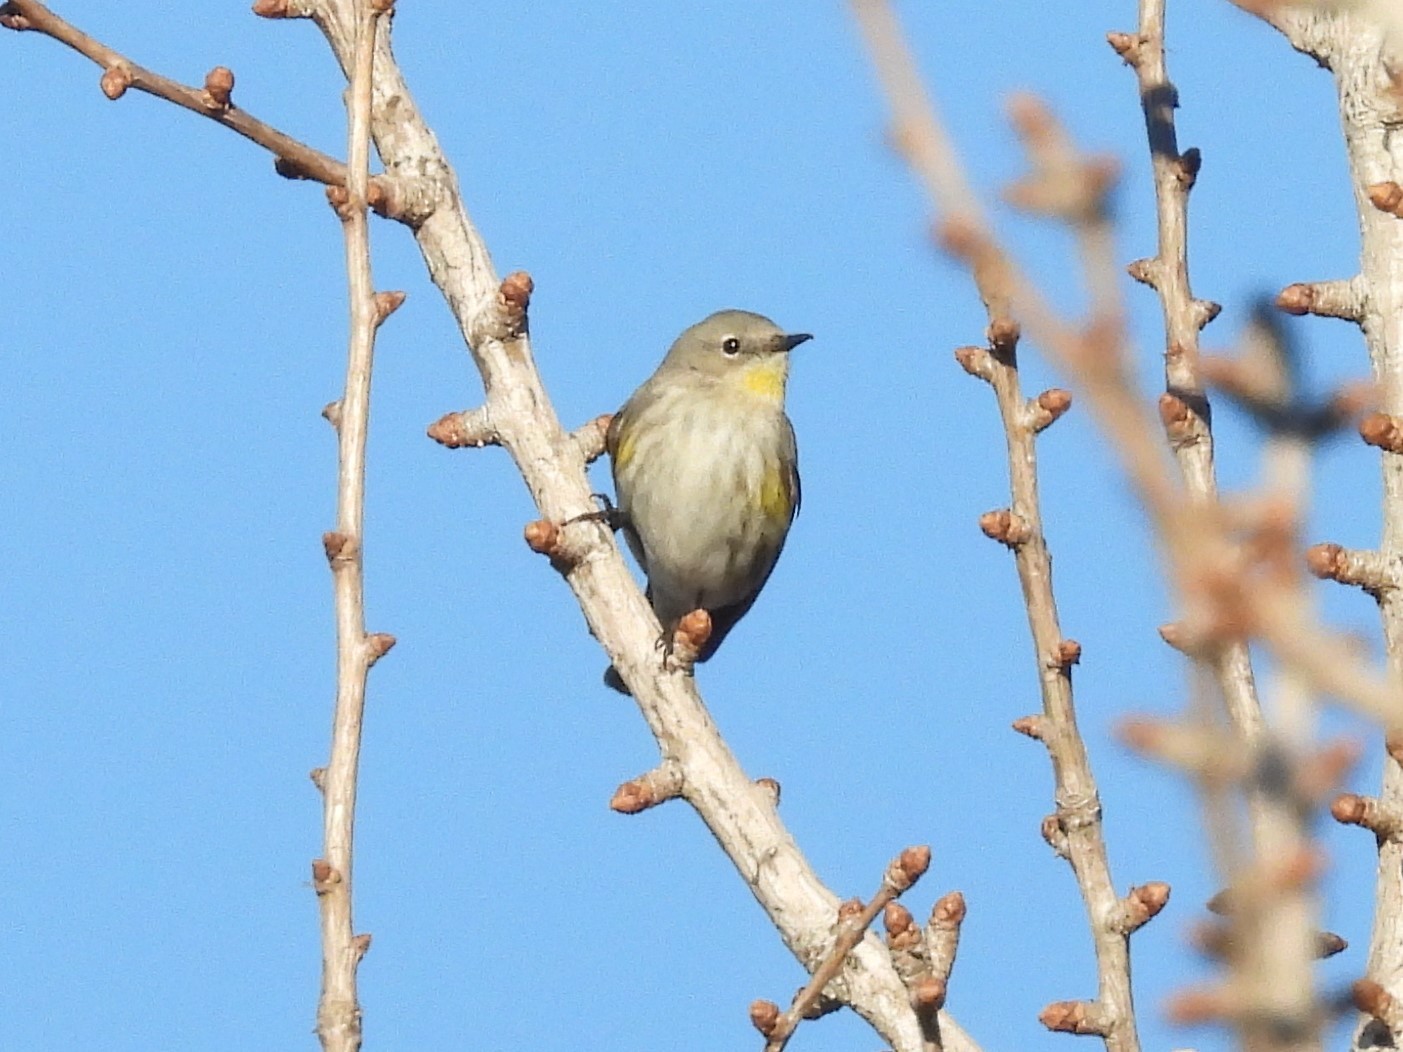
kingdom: Animalia
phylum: Chordata
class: Aves
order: Passeriformes
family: Parulidae
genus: Setophaga
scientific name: Setophaga coronata
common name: Myrtle warbler
